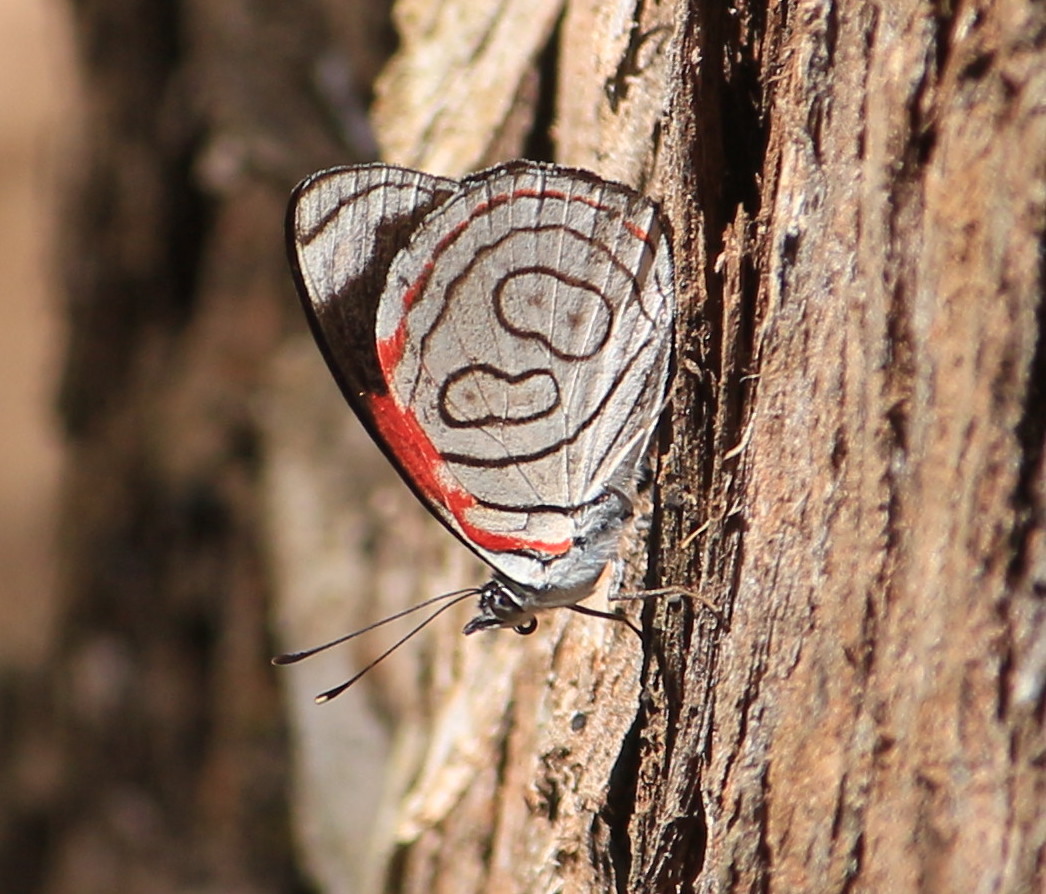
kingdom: Animalia
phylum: Arthropoda
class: Insecta
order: Lepidoptera
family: Nymphalidae
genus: Diaethria
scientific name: Diaethria astala
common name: Navy eighty-eight
